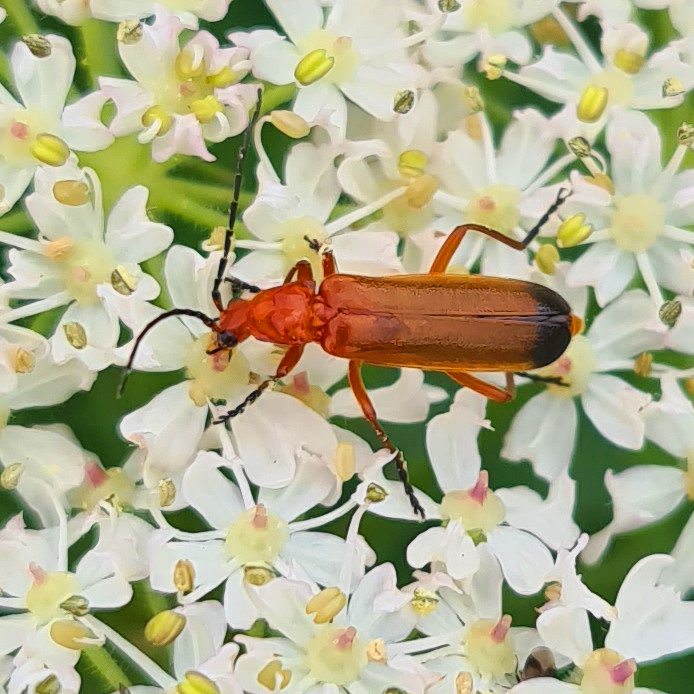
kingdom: Animalia
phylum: Arthropoda
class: Insecta
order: Coleoptera
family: Cantharidae
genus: Rhagonycha
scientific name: Rhagonycha fulva
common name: Common red soldier beetle
